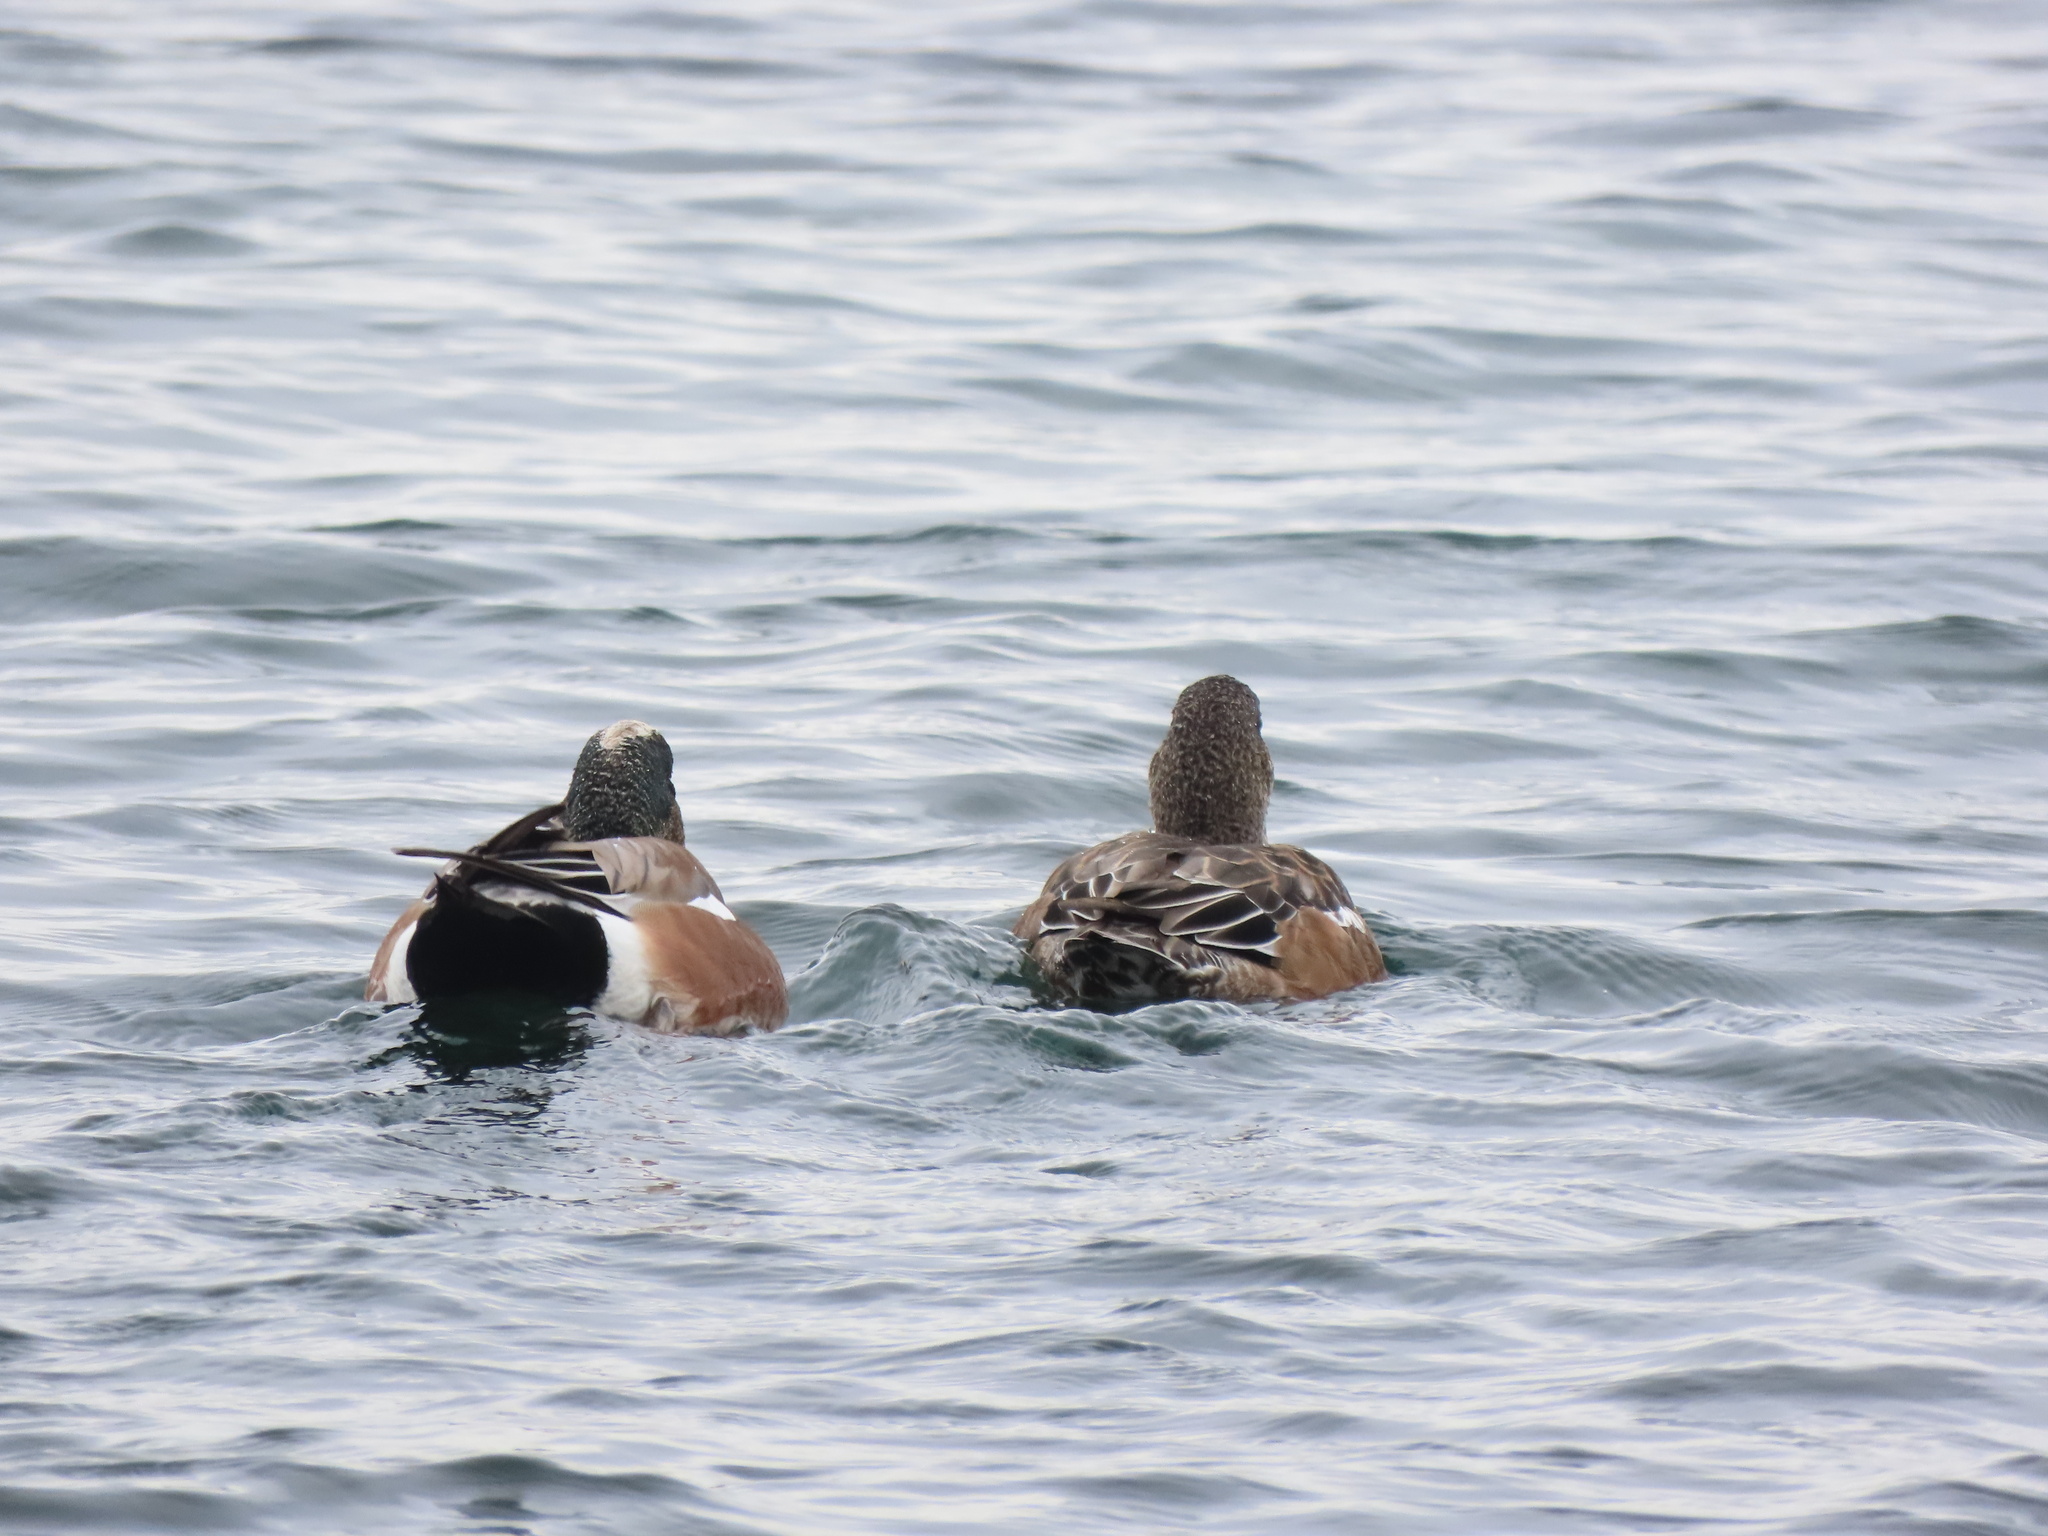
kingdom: Animalia
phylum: Chordata
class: Aves
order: Anseriformes
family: Anatidae
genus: Mareca
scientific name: Mareca americana
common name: American wigeon
